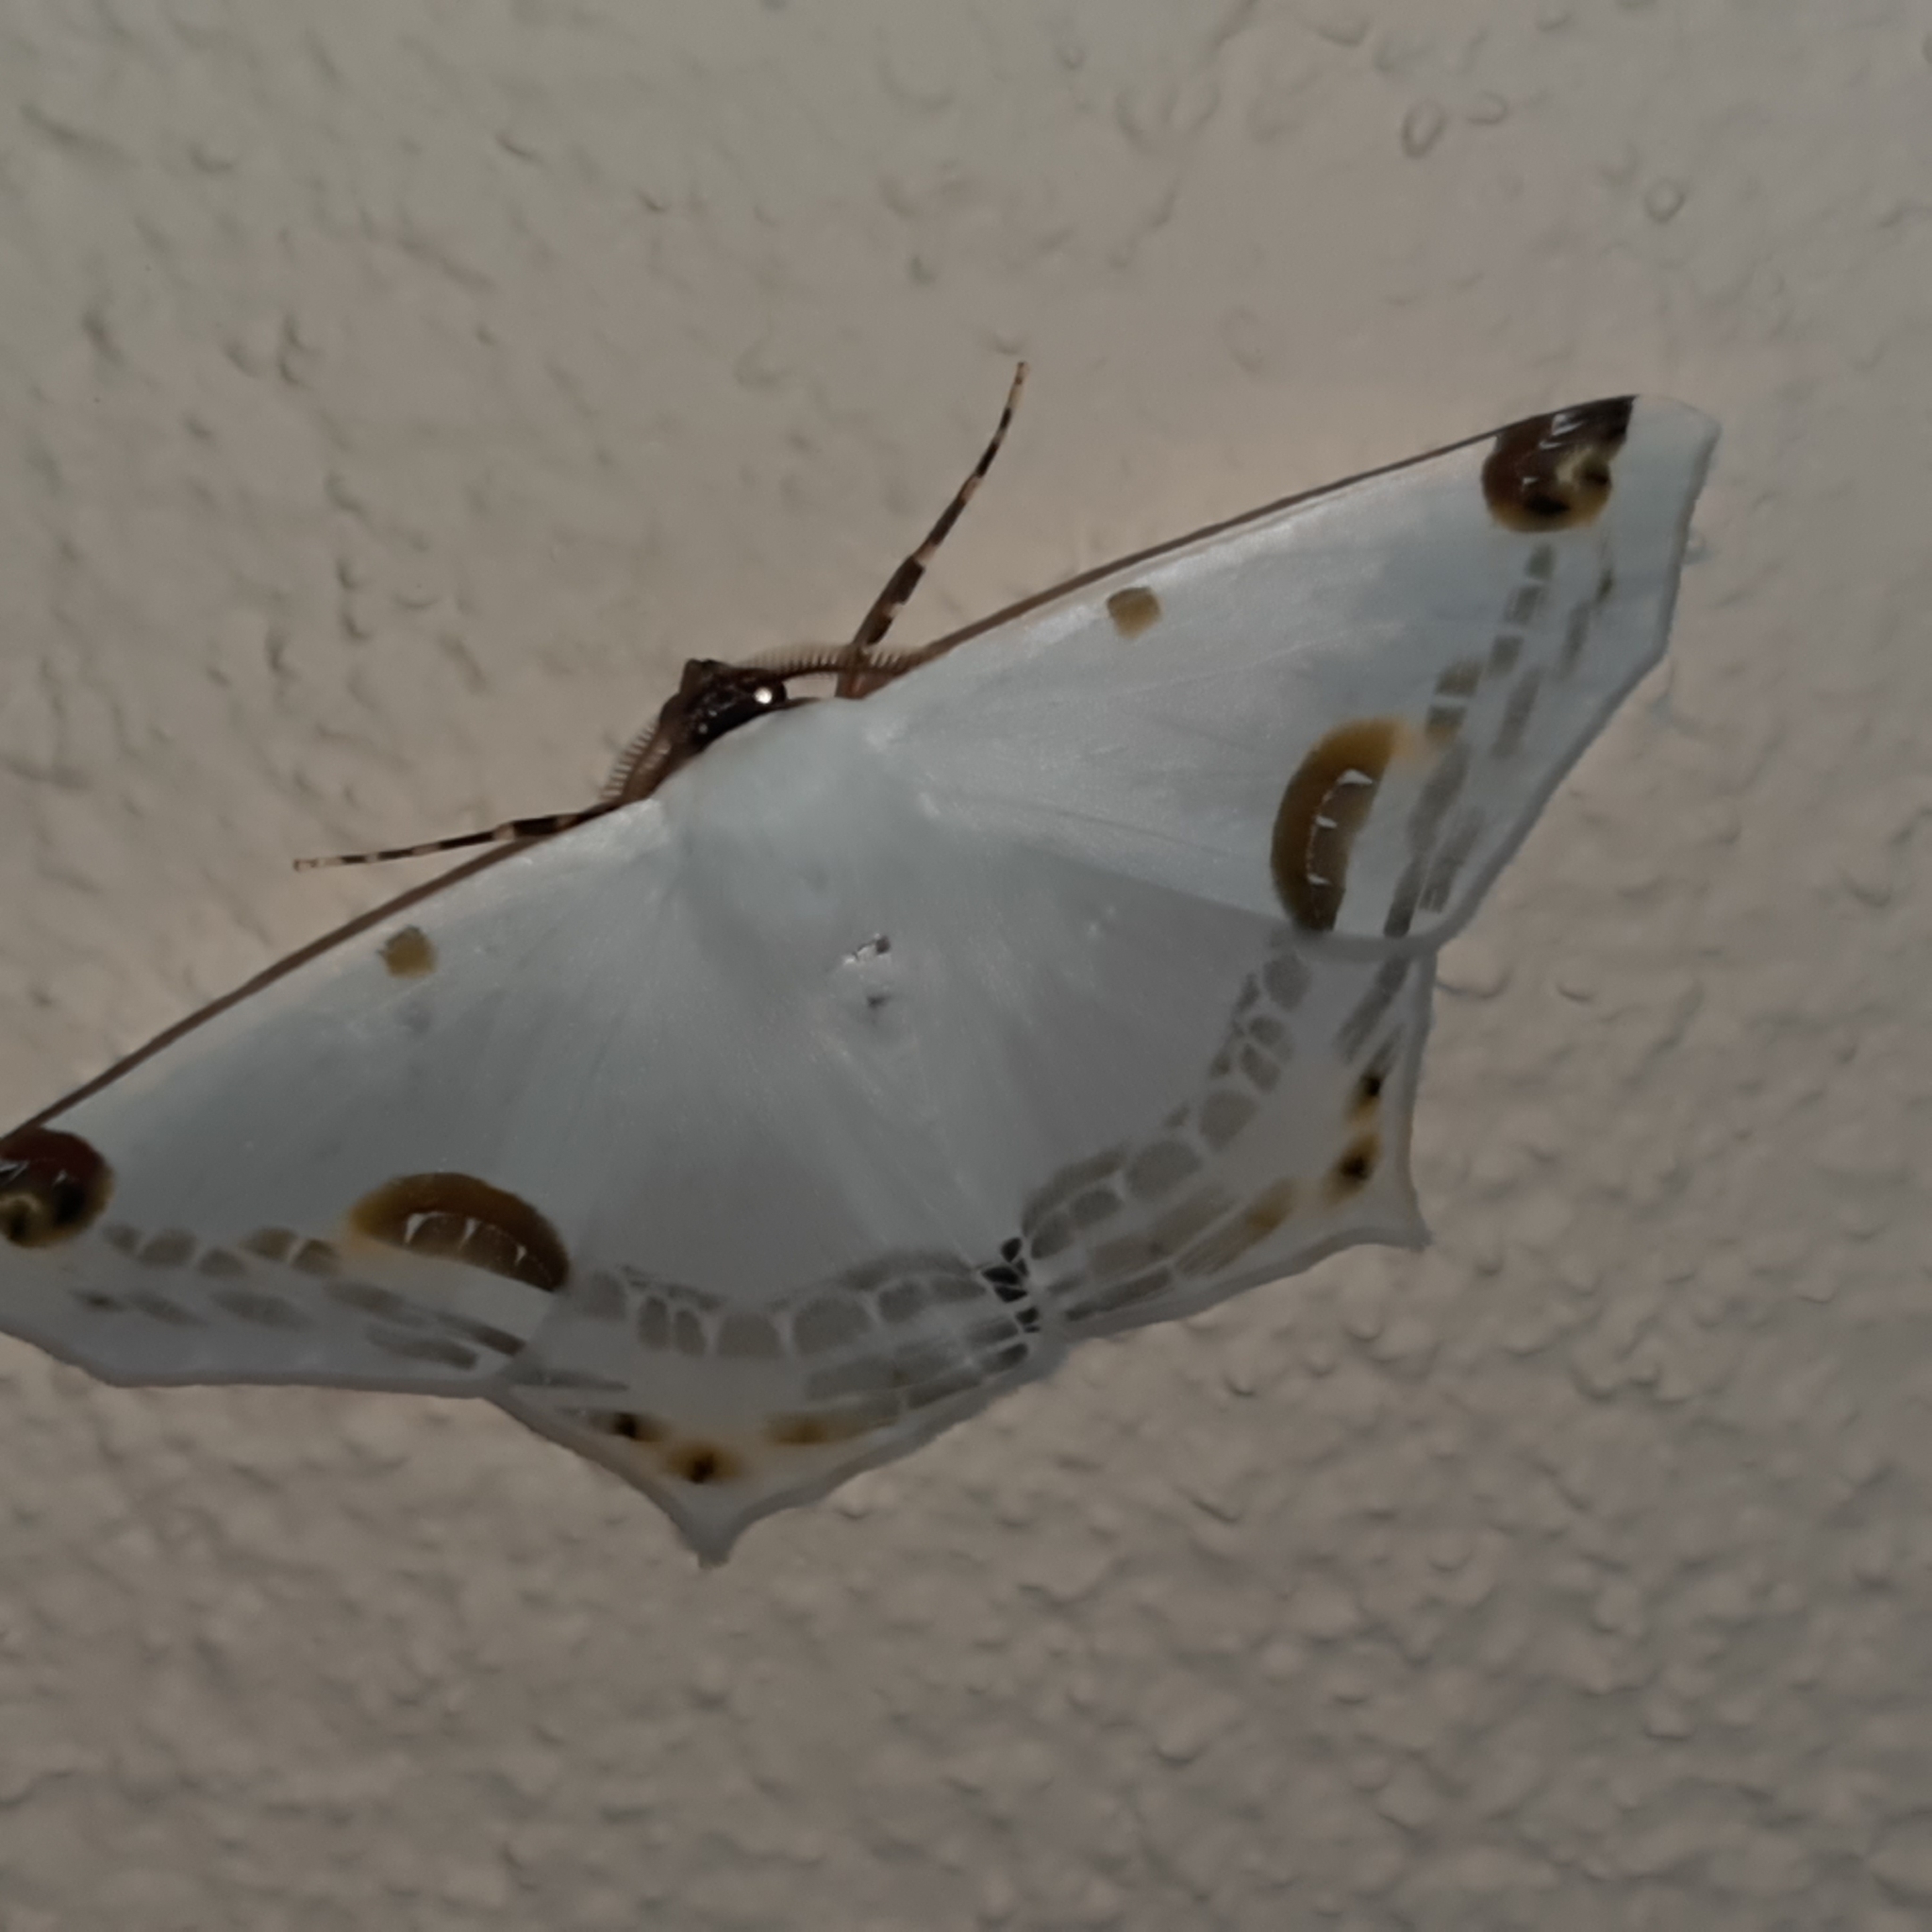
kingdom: Animalia
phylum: Arthropoda
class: Insecta
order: Lepidoptera
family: Geometridae
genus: Sericoptera
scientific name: Sericoptera mahometaria
